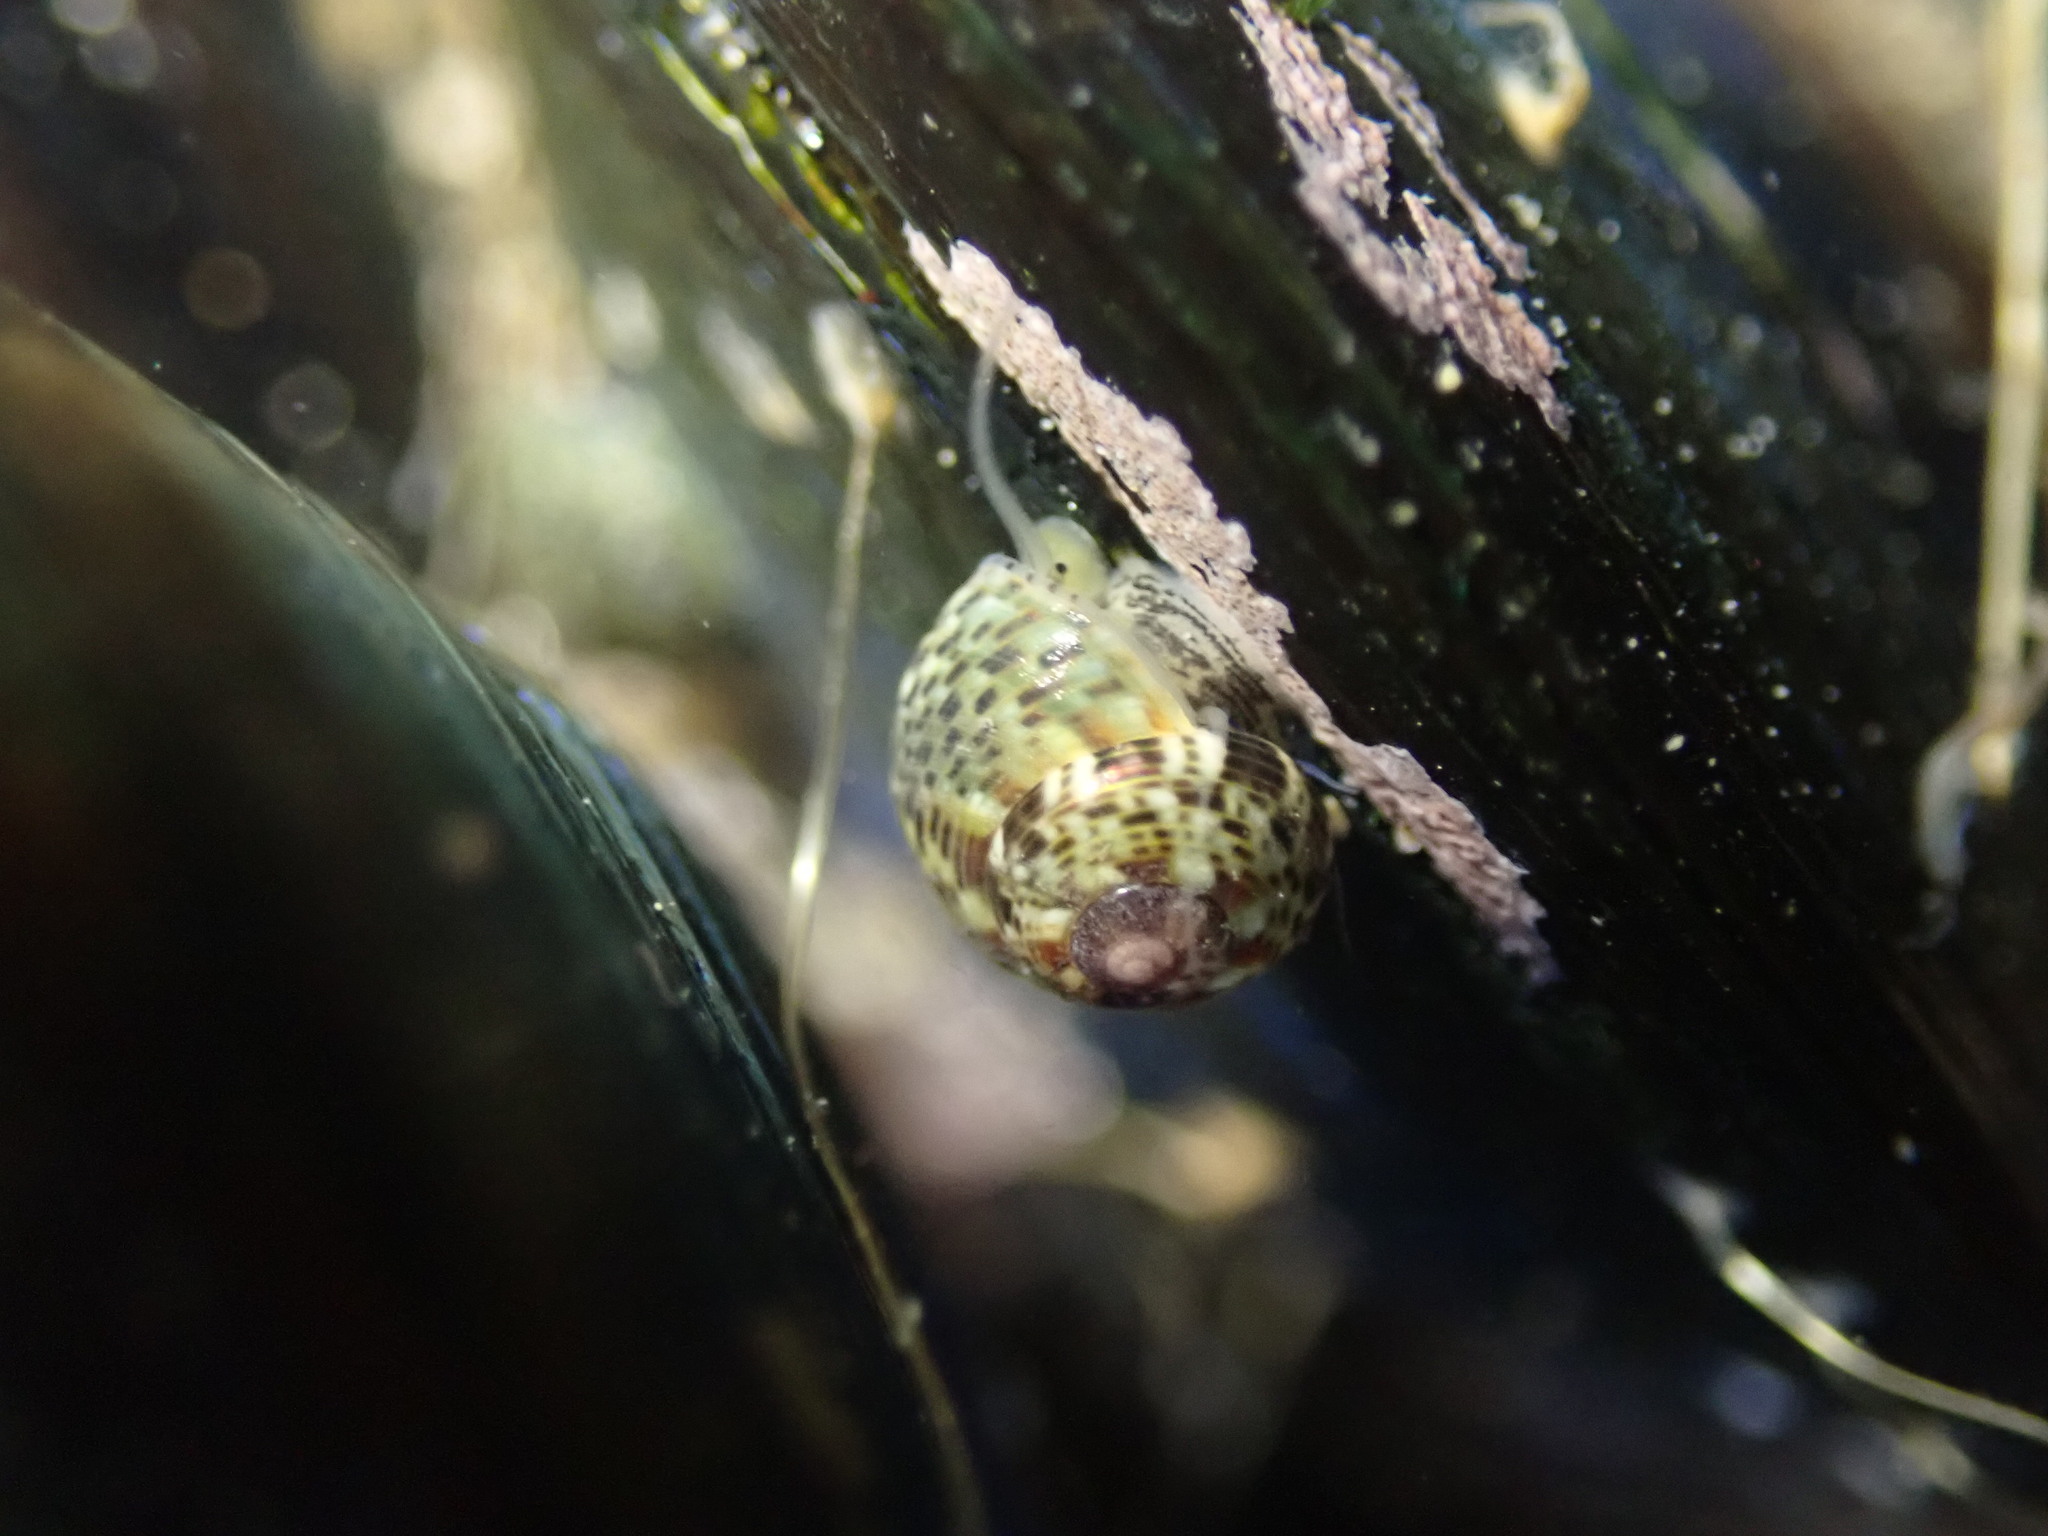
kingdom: Animalia
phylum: Mollusca
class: Gastropoda
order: Trochida
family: Trochidae
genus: Micrelenchus
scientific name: Micrelenchus tessellatus
